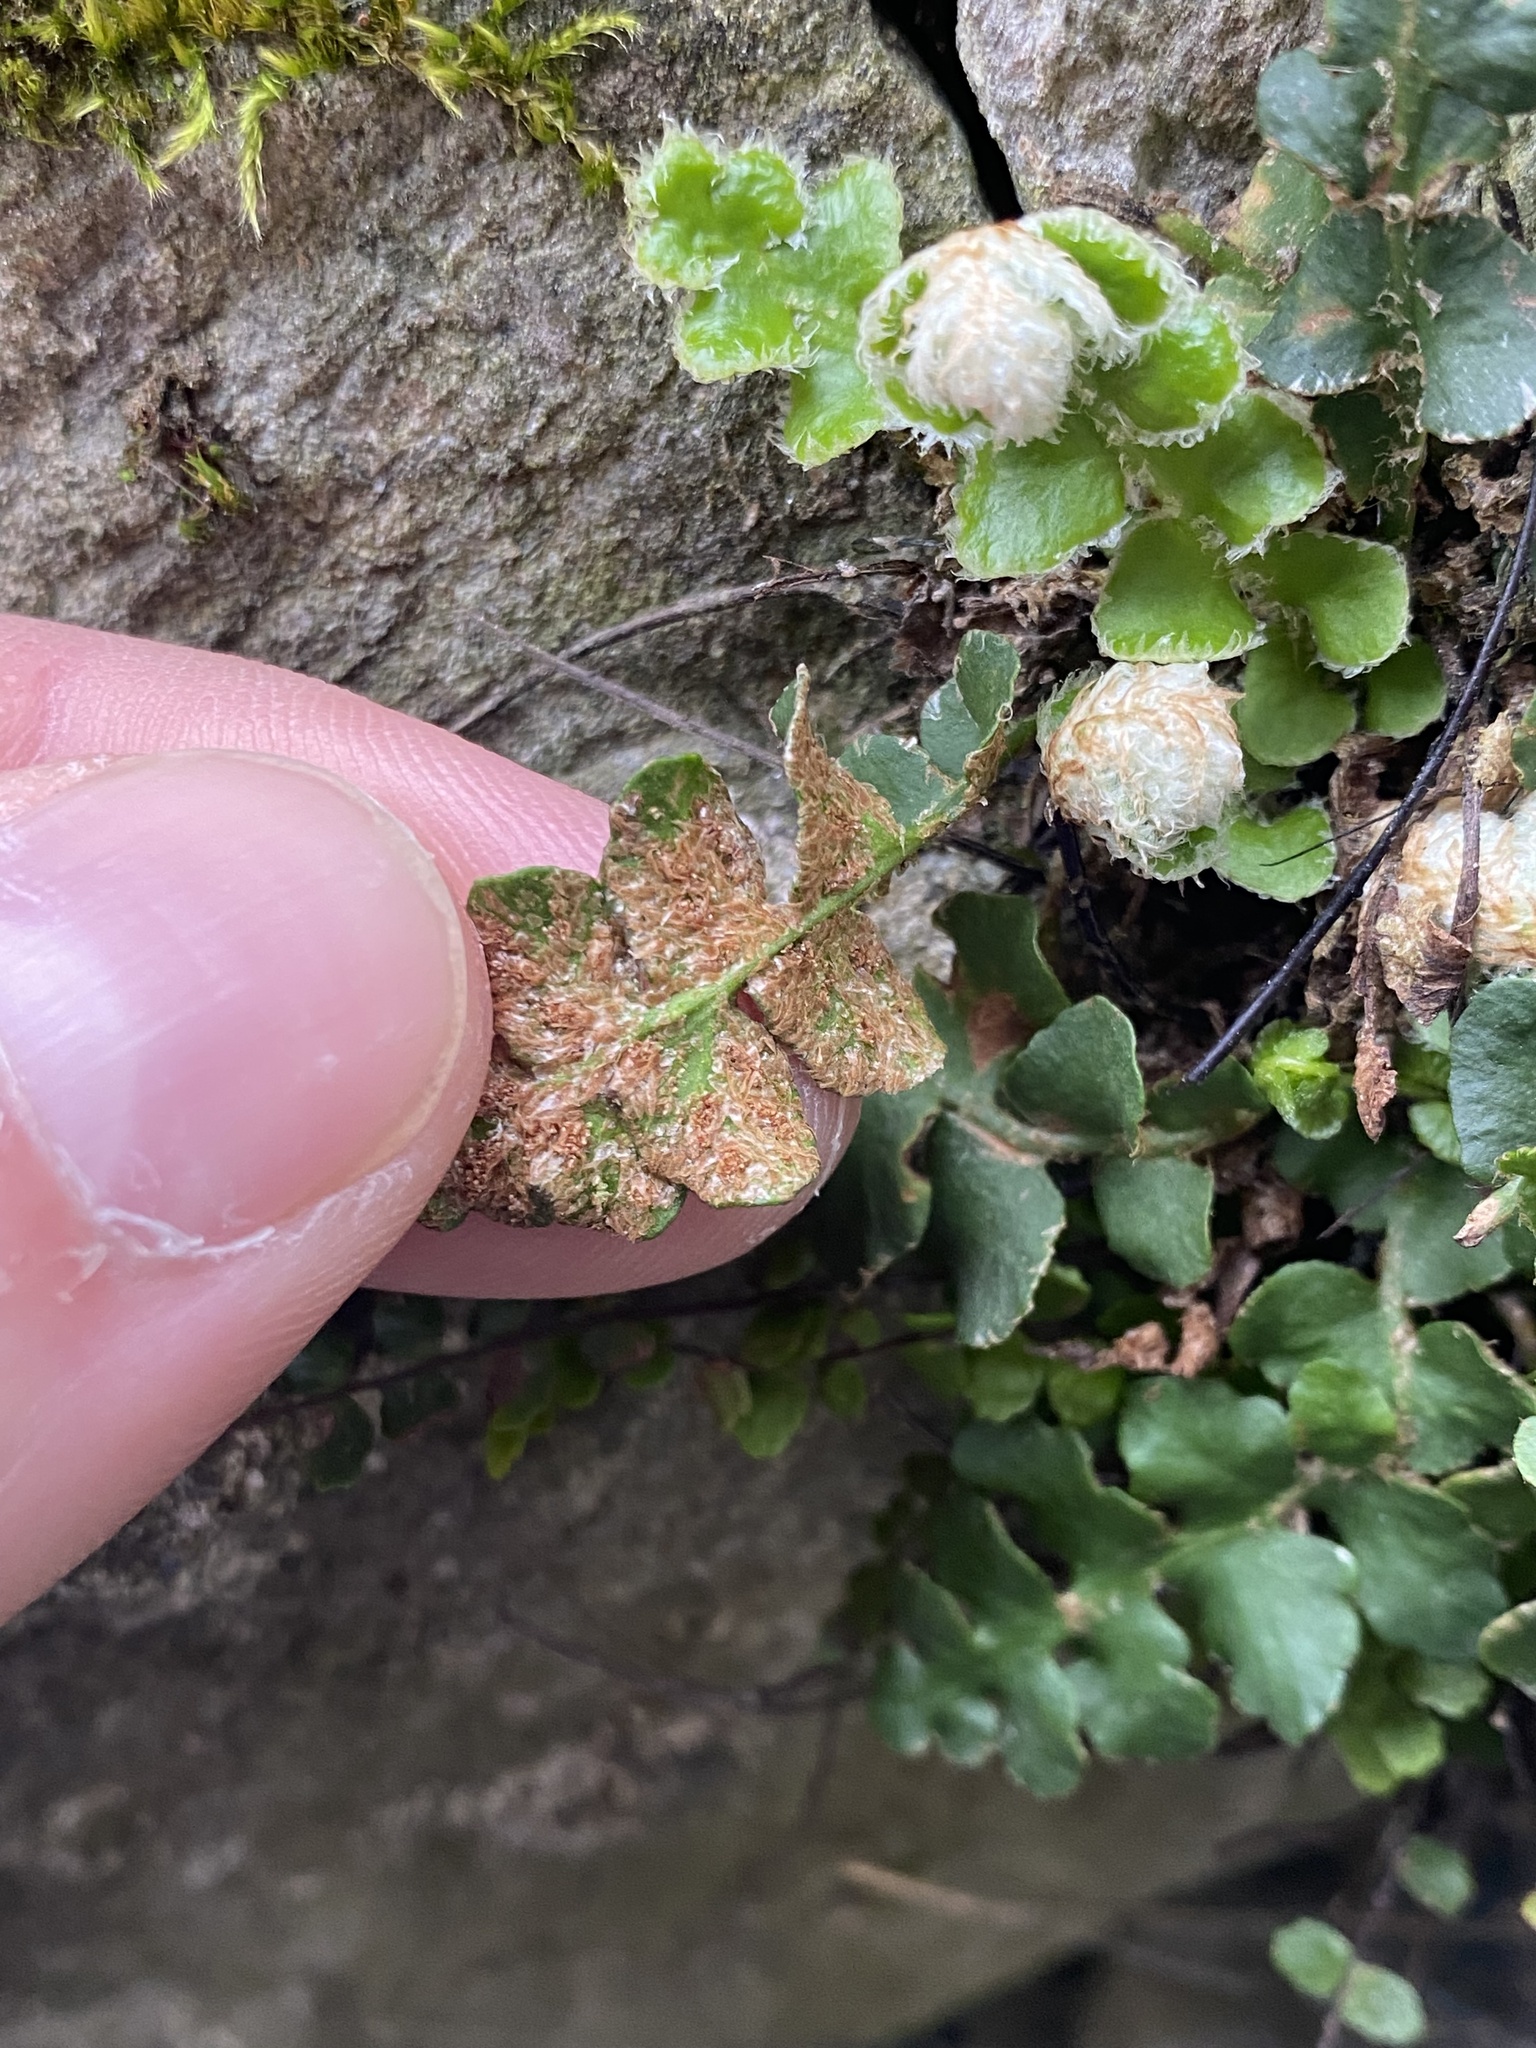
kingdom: Plantae
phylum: Tracheophyta
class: Polypodiopsida
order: Polypodiales
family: Aspleniaceae
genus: Asplenium
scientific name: Asplenium ceterach
